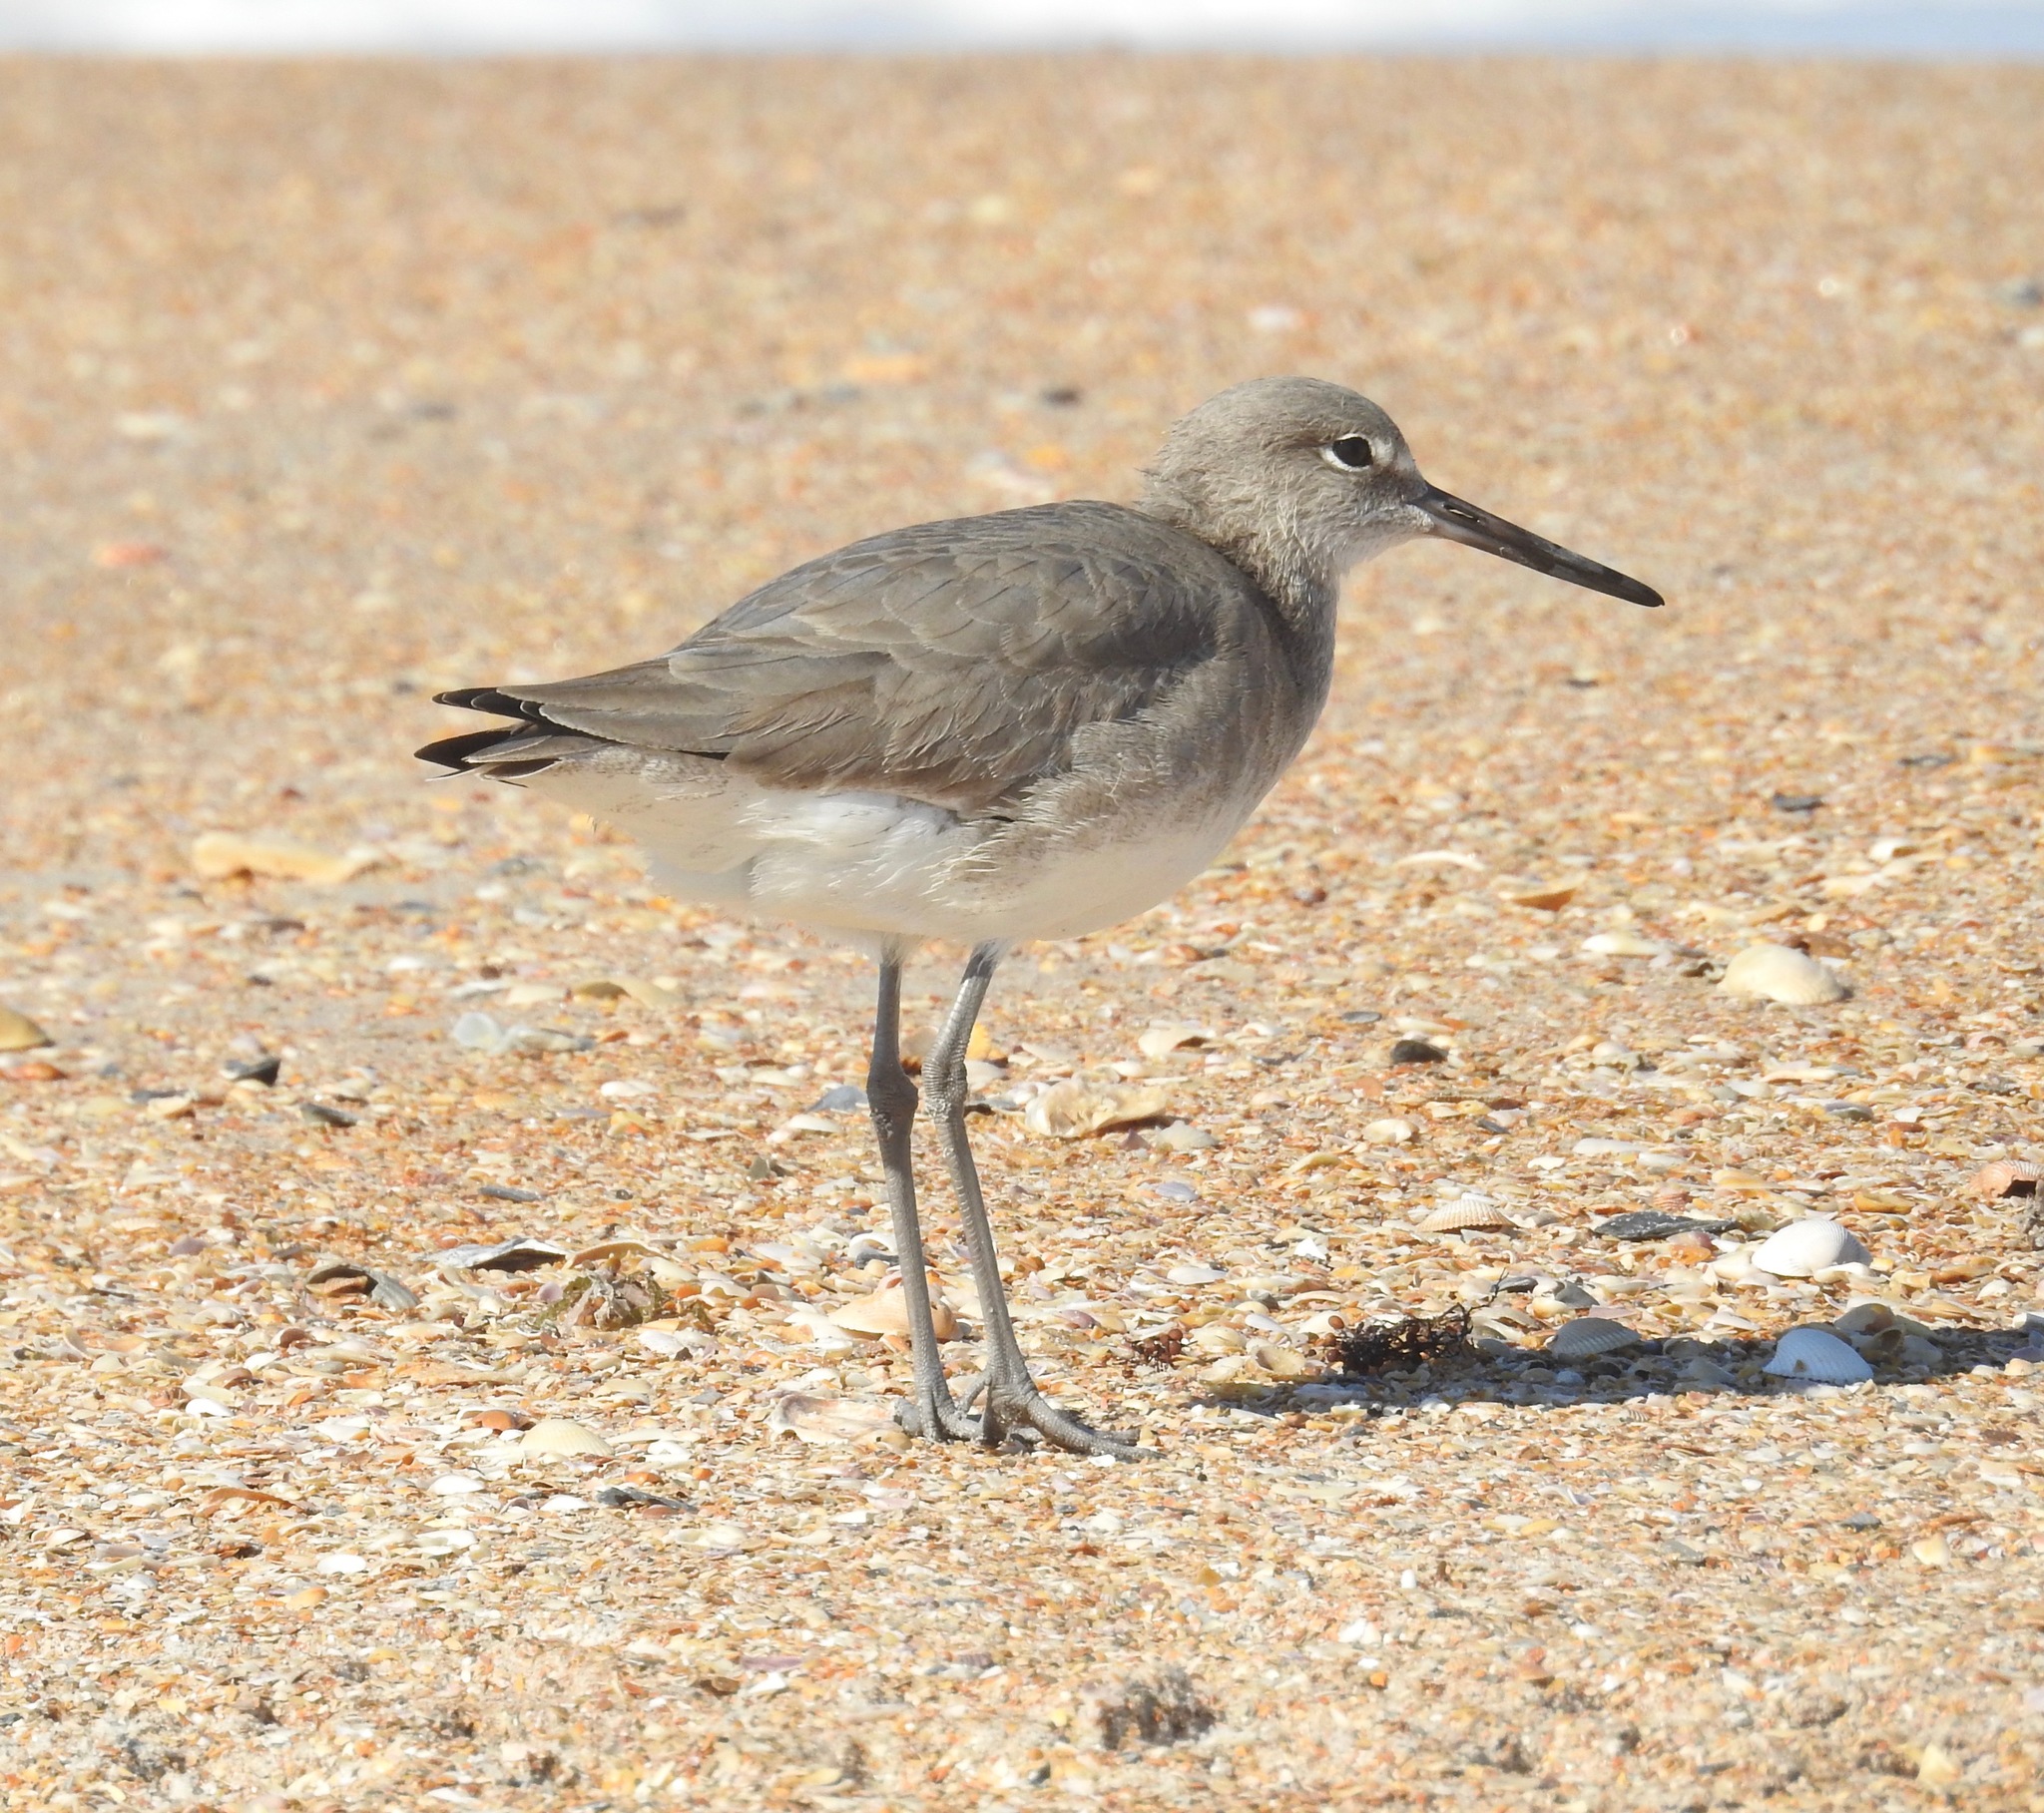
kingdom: Animalia
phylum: Chordata
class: Aves
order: Charadriiformes
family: Scolopacidae
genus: Tringa
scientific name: Tringa semipalmata
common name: Willet
